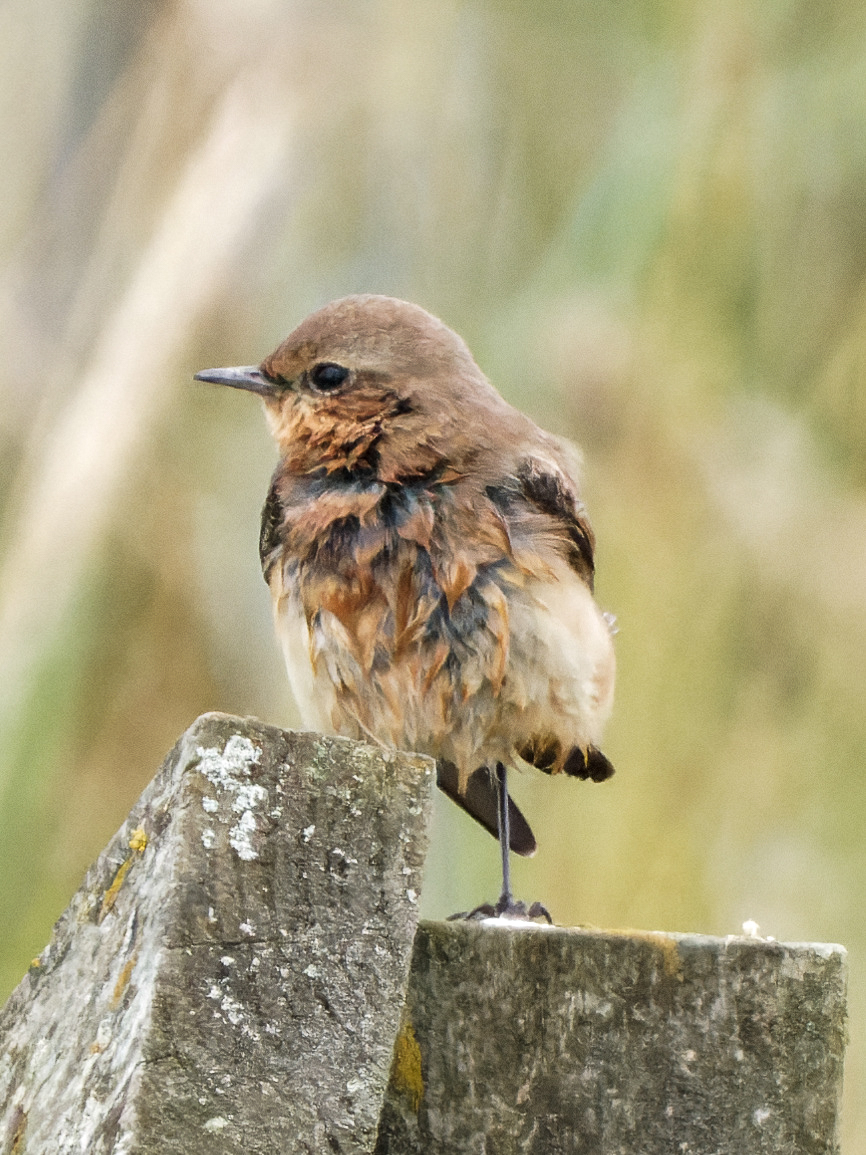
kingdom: Animalia
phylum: Chordata
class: Aves
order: Passeriformes
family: Muscicapidae
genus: Oenanthe
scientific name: Oenanthe oenanthe
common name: Northern wheatear
